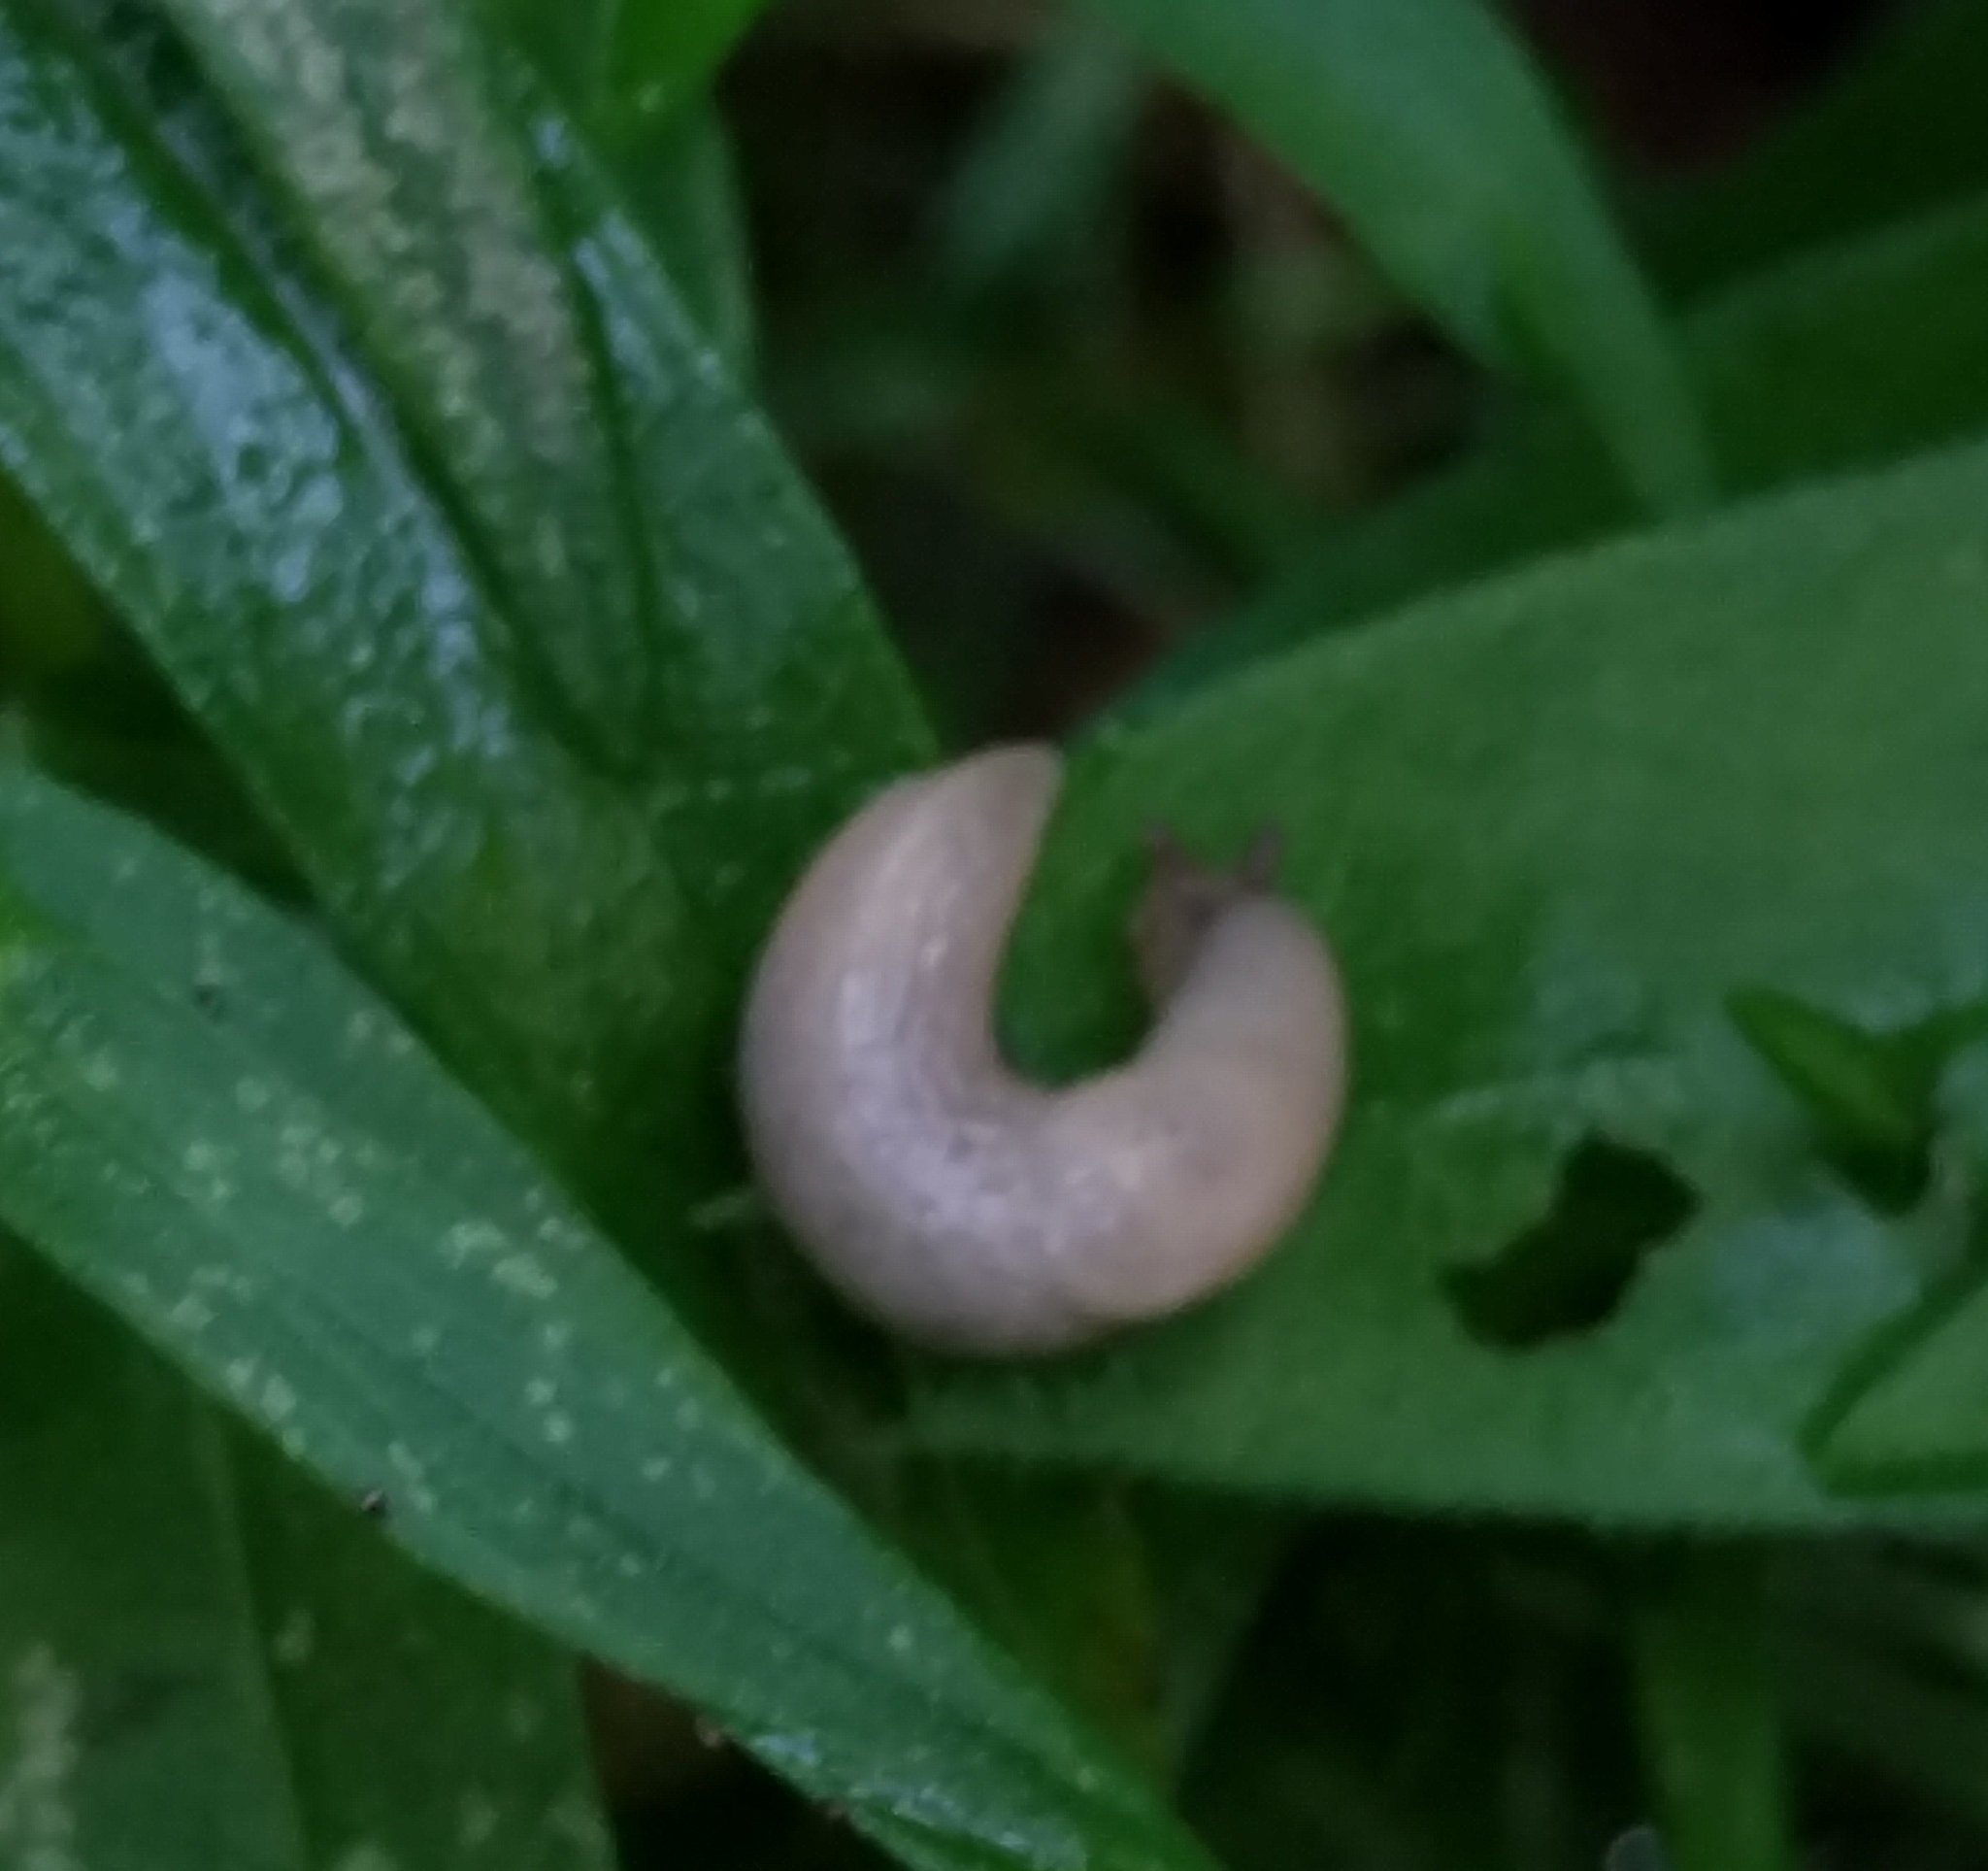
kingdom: Animalia
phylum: Mollusca
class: Gastropoda
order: Stylommatophora
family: Agriolimacidae
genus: Deroceras
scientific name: Deroceras reticulatum
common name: Gray field slug
